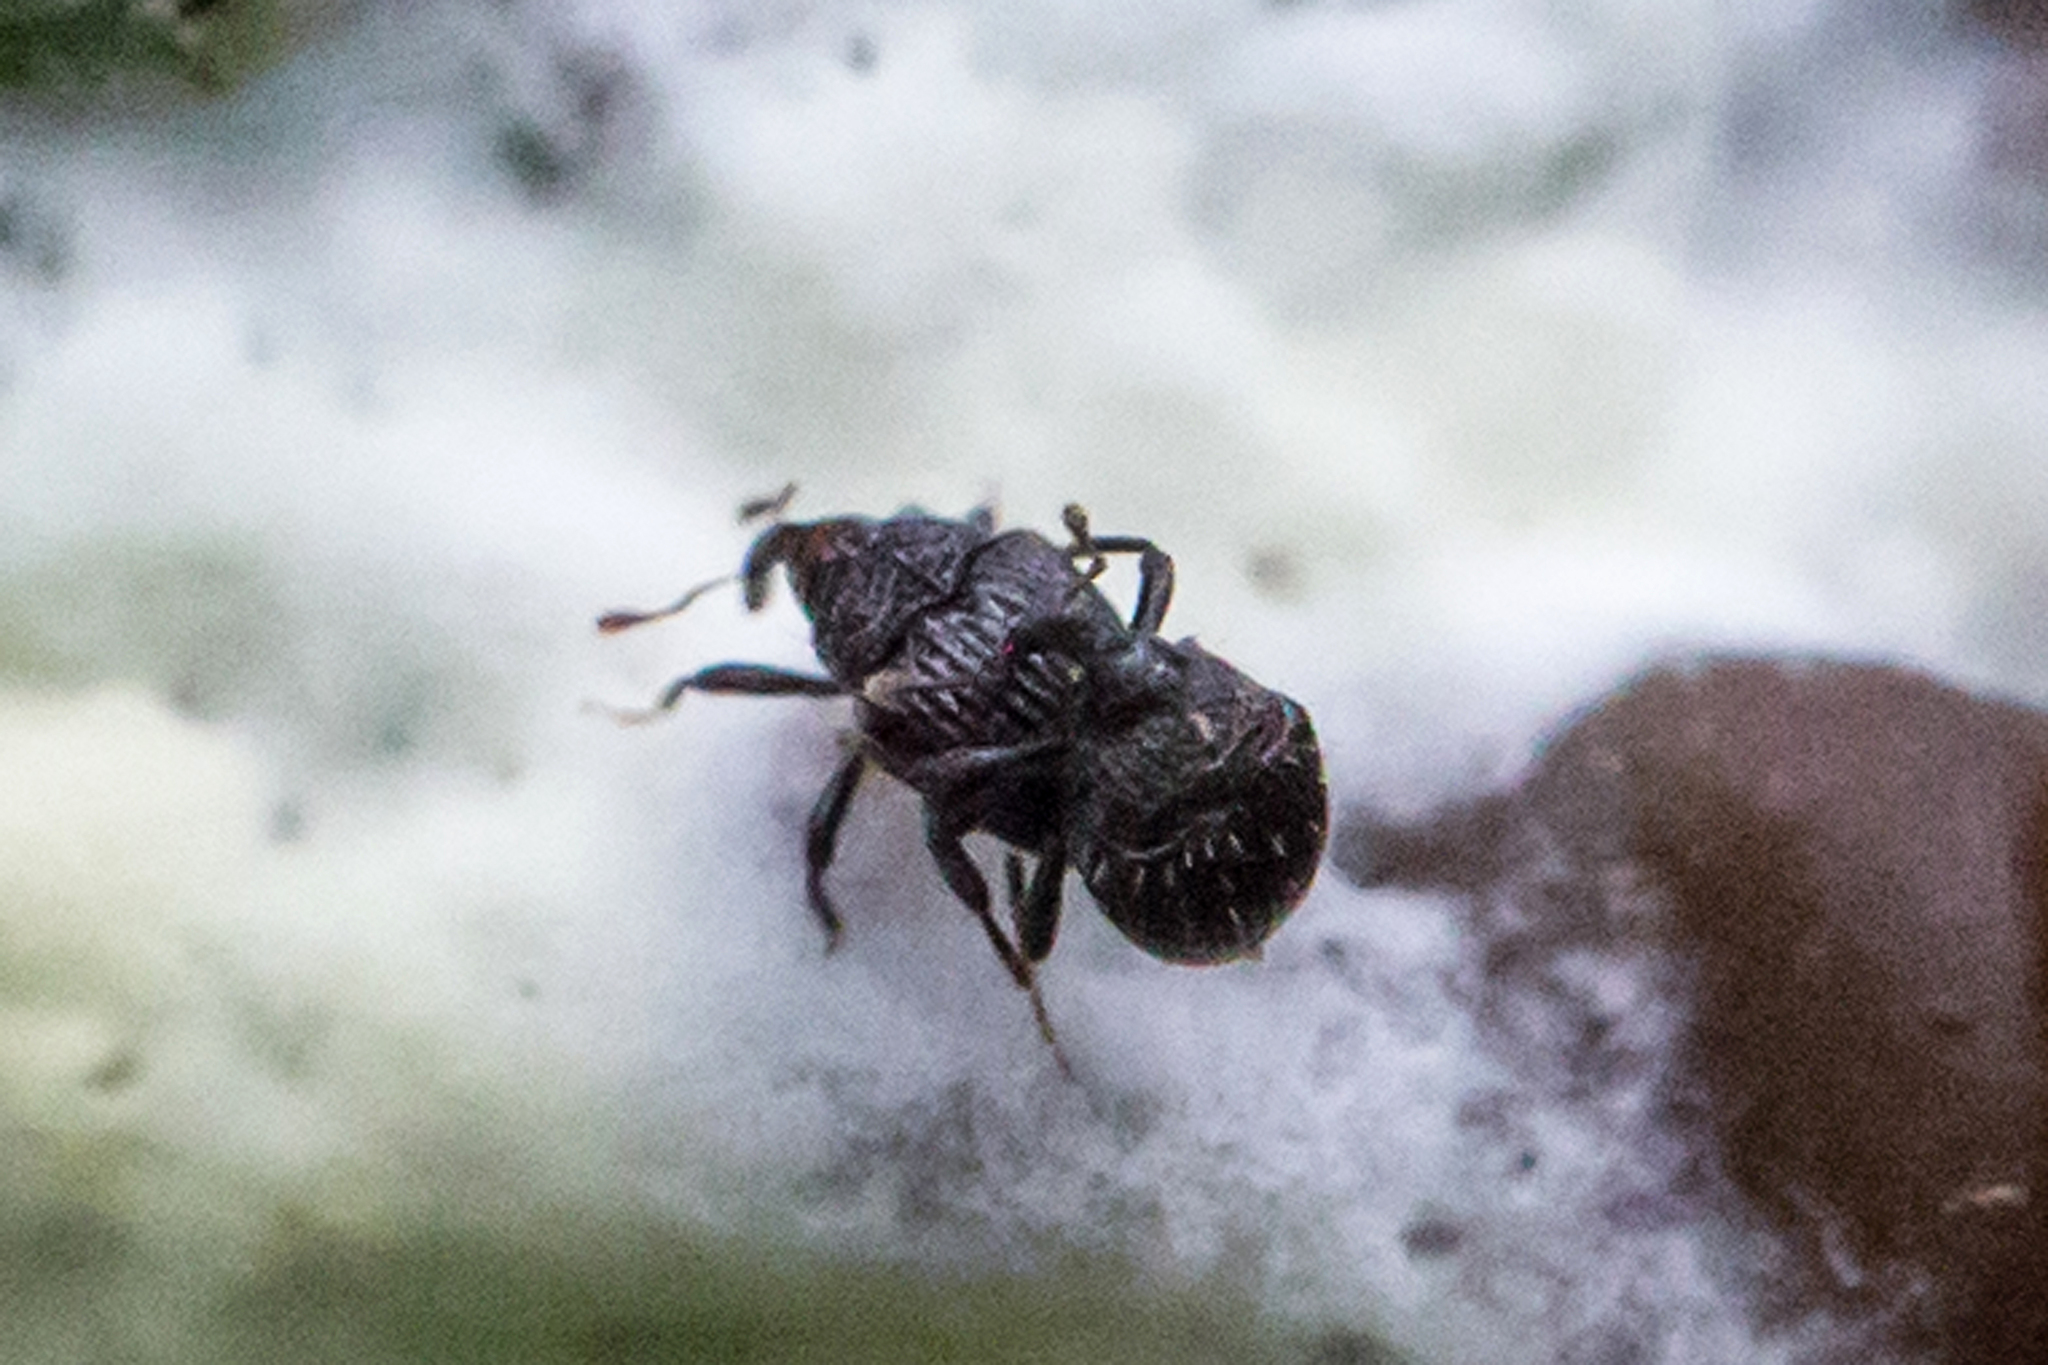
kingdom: Animalia
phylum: Arthropoda
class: Insecta
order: Coleoptera
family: Curculionidae
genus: Buchananius
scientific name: Buchananius sulcatus
